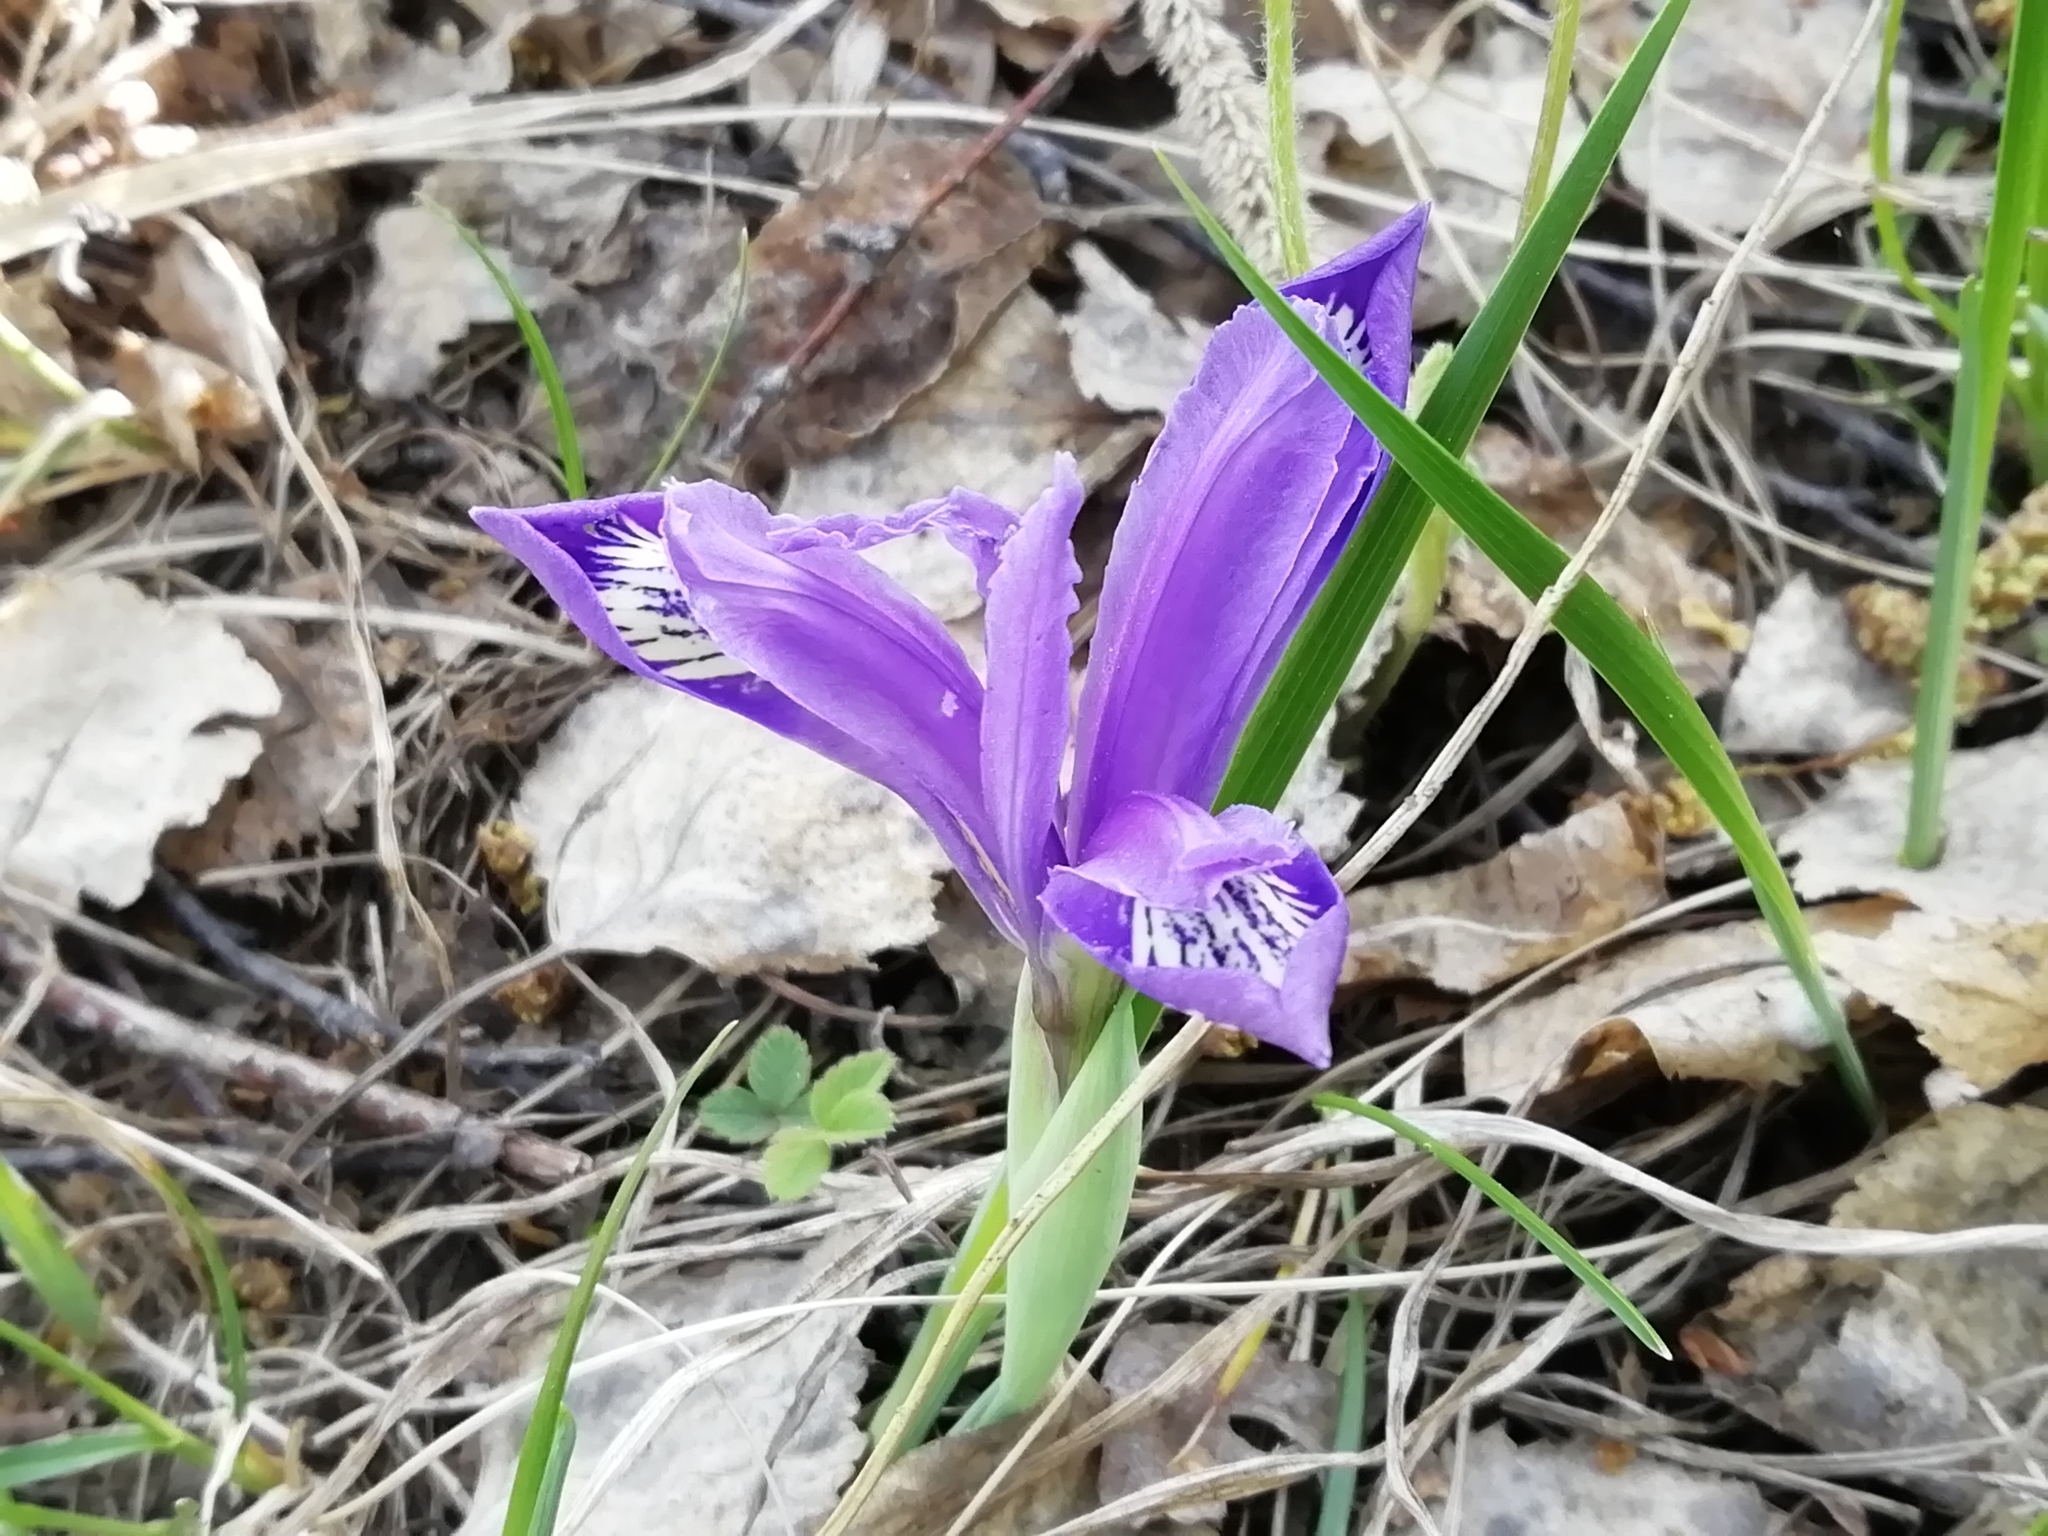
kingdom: Plantae
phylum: Tracheophyta
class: Liliopsida
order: Asparagales
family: Iridaceae
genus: Iris
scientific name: Iris ruthenica
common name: Purple-bract iris
